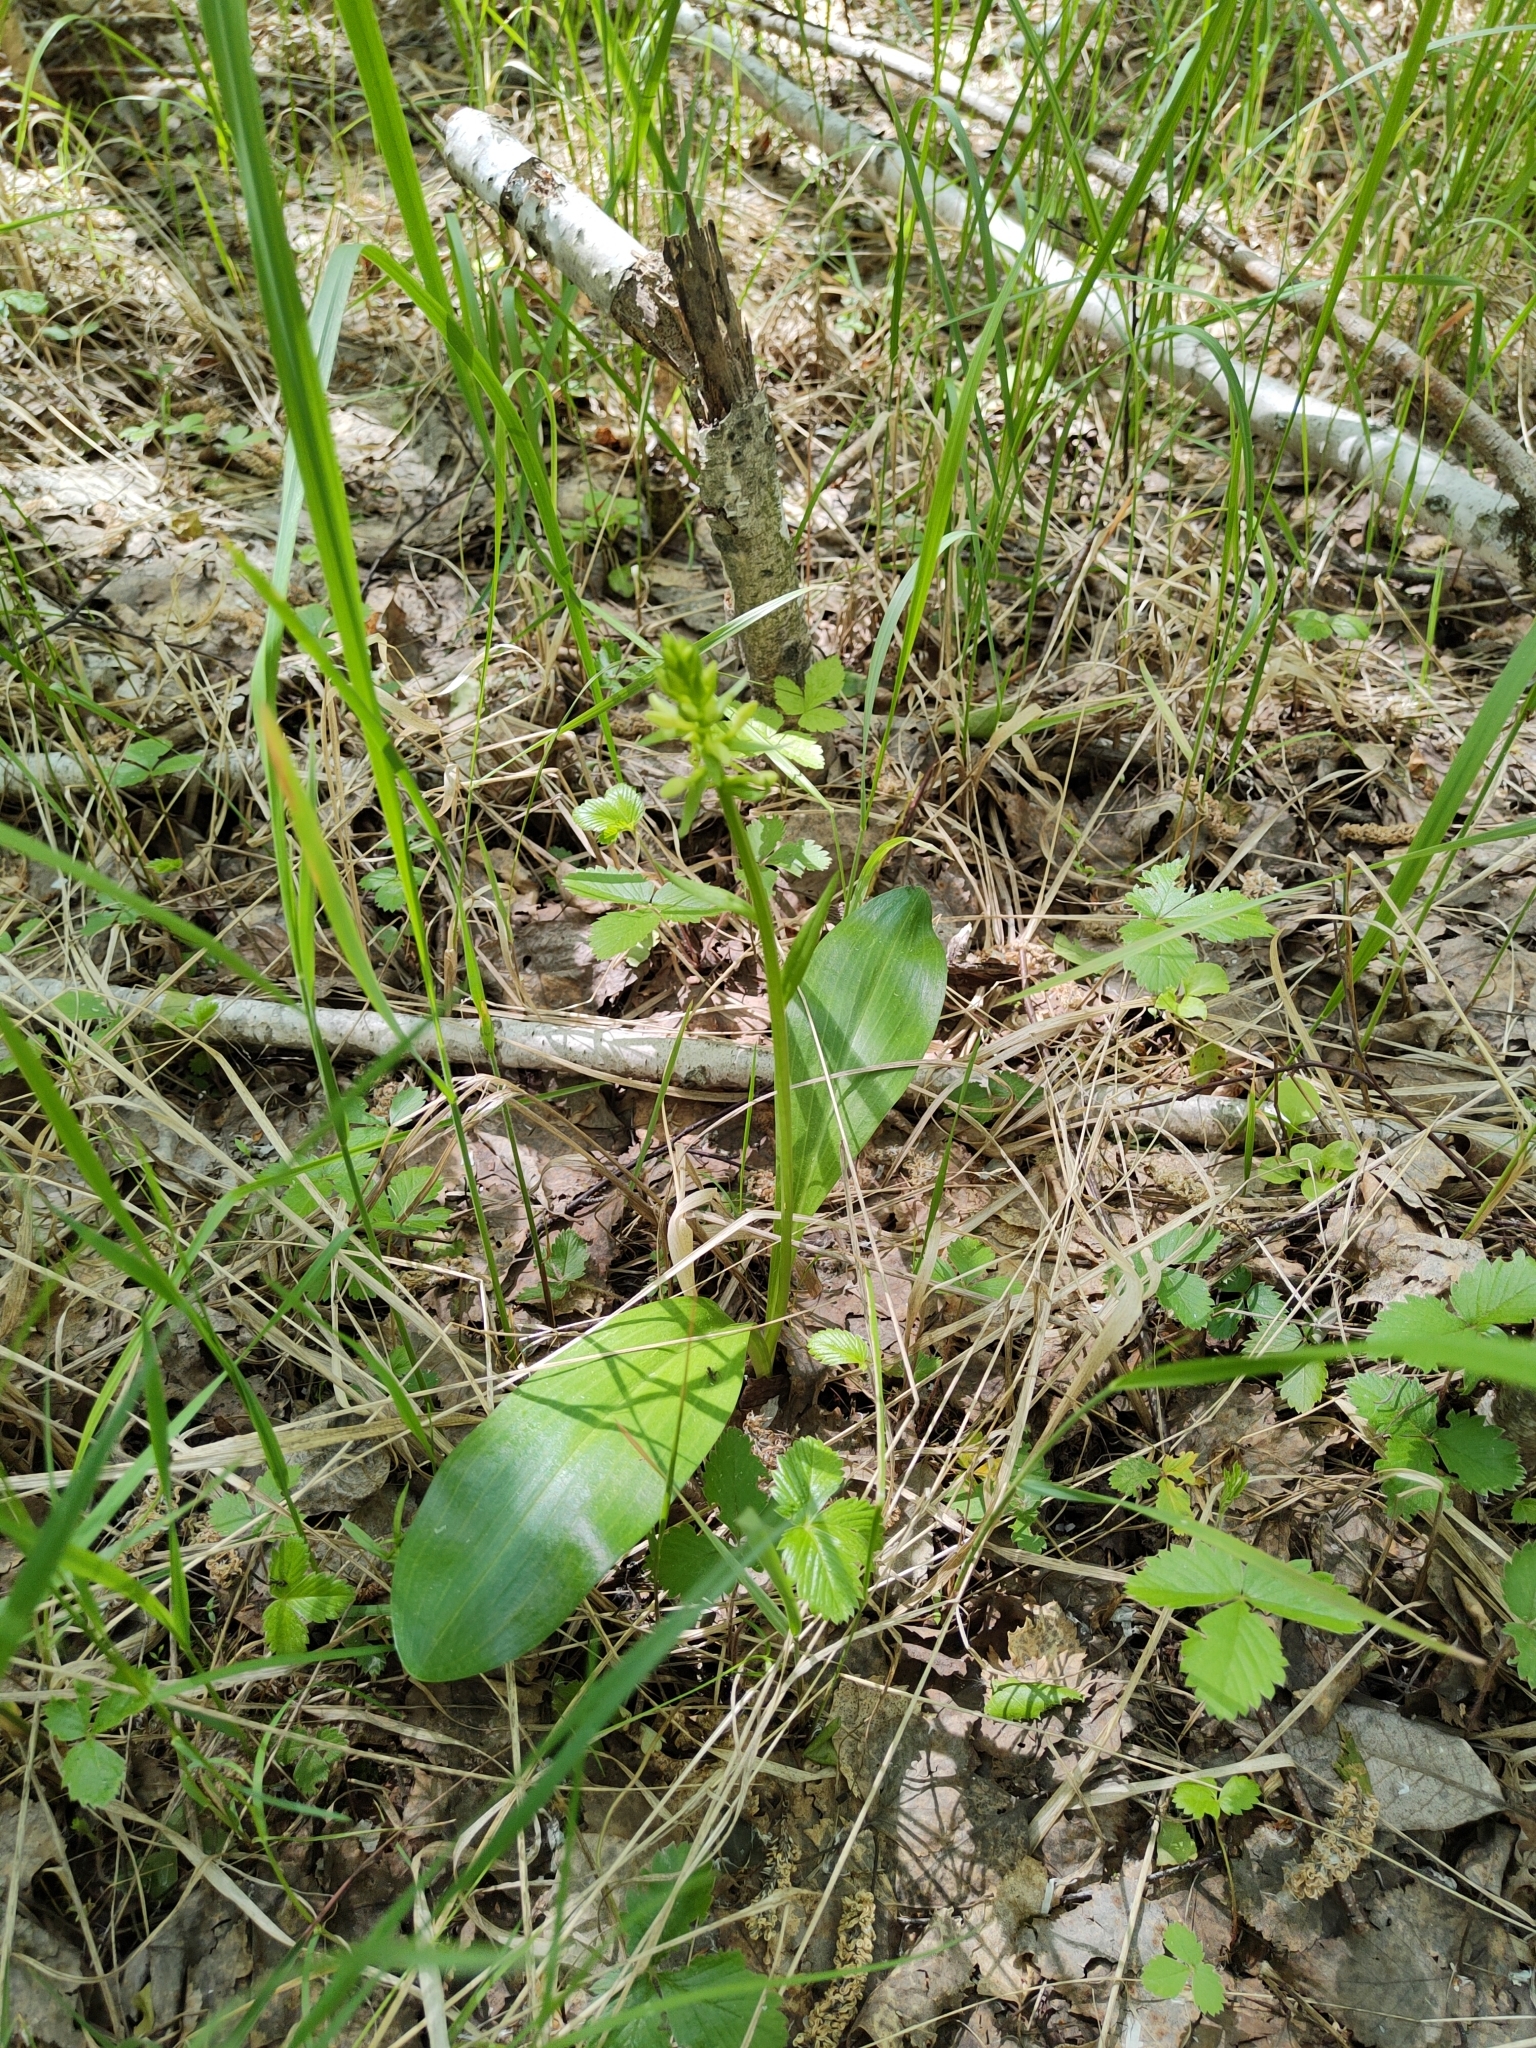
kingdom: Plantae
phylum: Tracheophyta
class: Liliopsida
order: Asparagales
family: Orchidaceae
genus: Platanthera
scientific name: Platanthera bifolia
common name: Lesser butterfly-orchid
